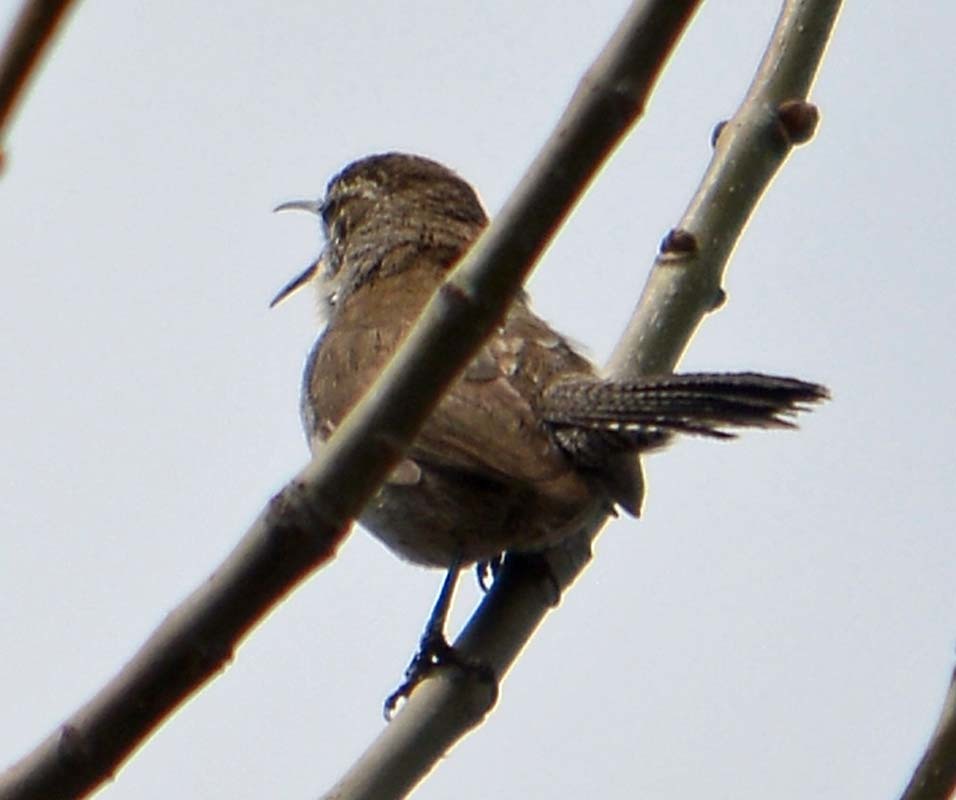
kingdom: Animalia
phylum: Chordata
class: Aves
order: Passeriformes
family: Troglodytidae
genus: Thryomanes
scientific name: Thryomanes bewickii
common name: Bewick's wren
